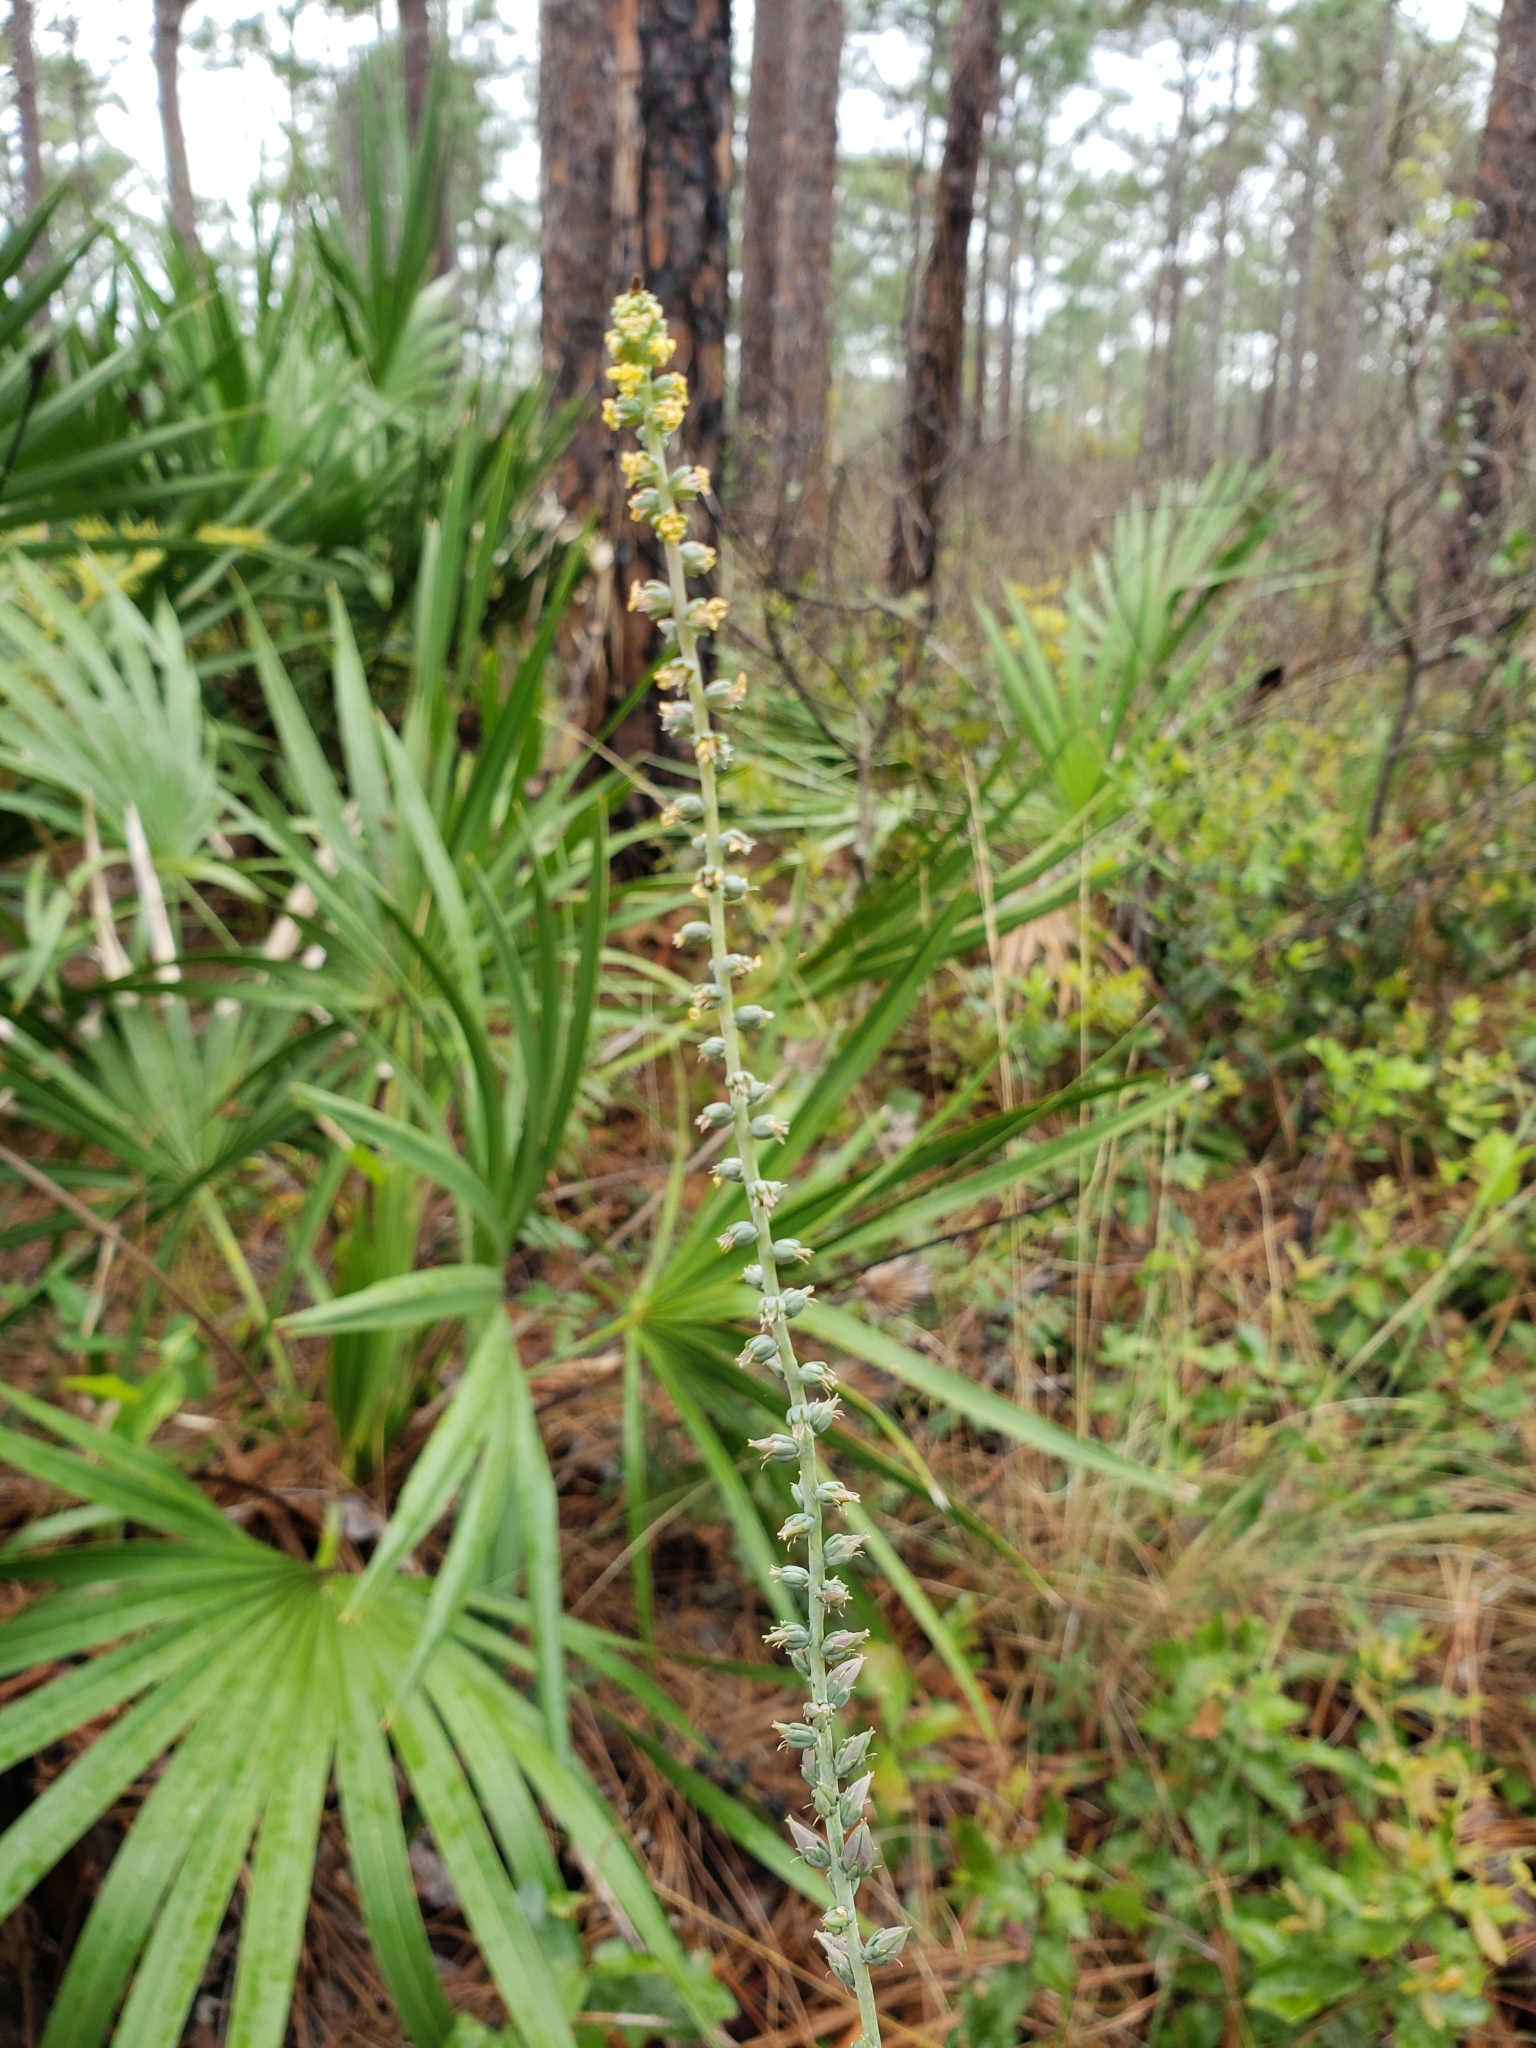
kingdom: Plantae
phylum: Tracheophyta
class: Liliopsida
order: Liliales
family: Melanthiaceae
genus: Schoenocaulon
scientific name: Schoenocaulon dubium
